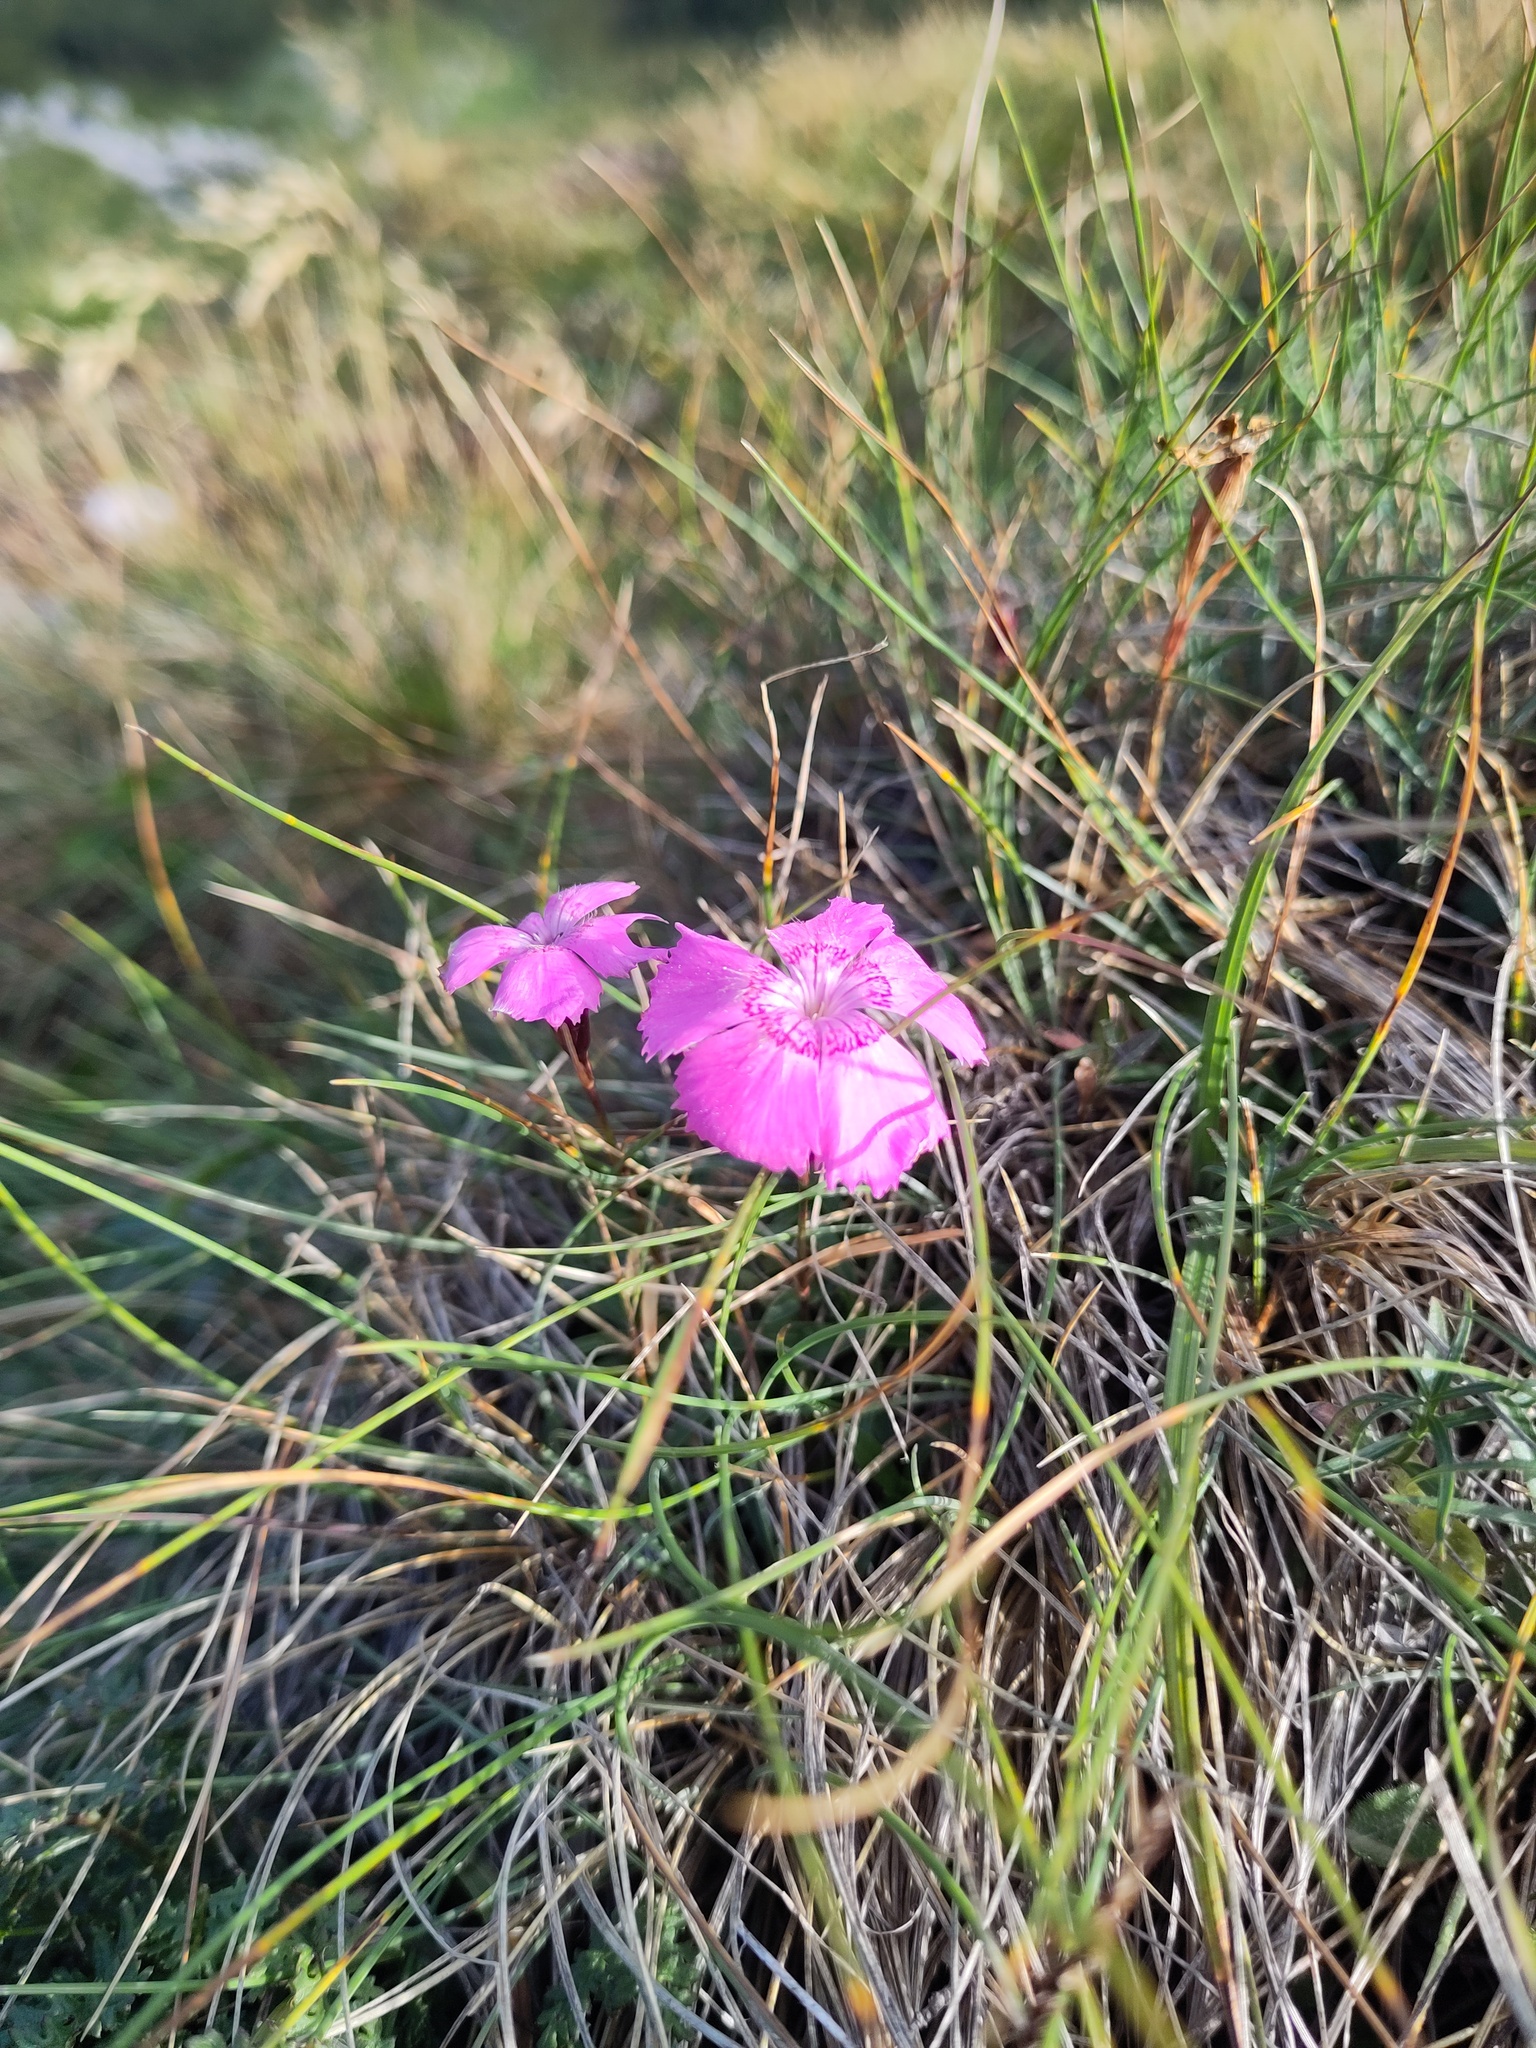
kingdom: Plantae
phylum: Tracheophyta
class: Magnoliopsida
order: Caryophyllales
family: Caryophyllaceae
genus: Dianthus
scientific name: Dianthus alpinus
